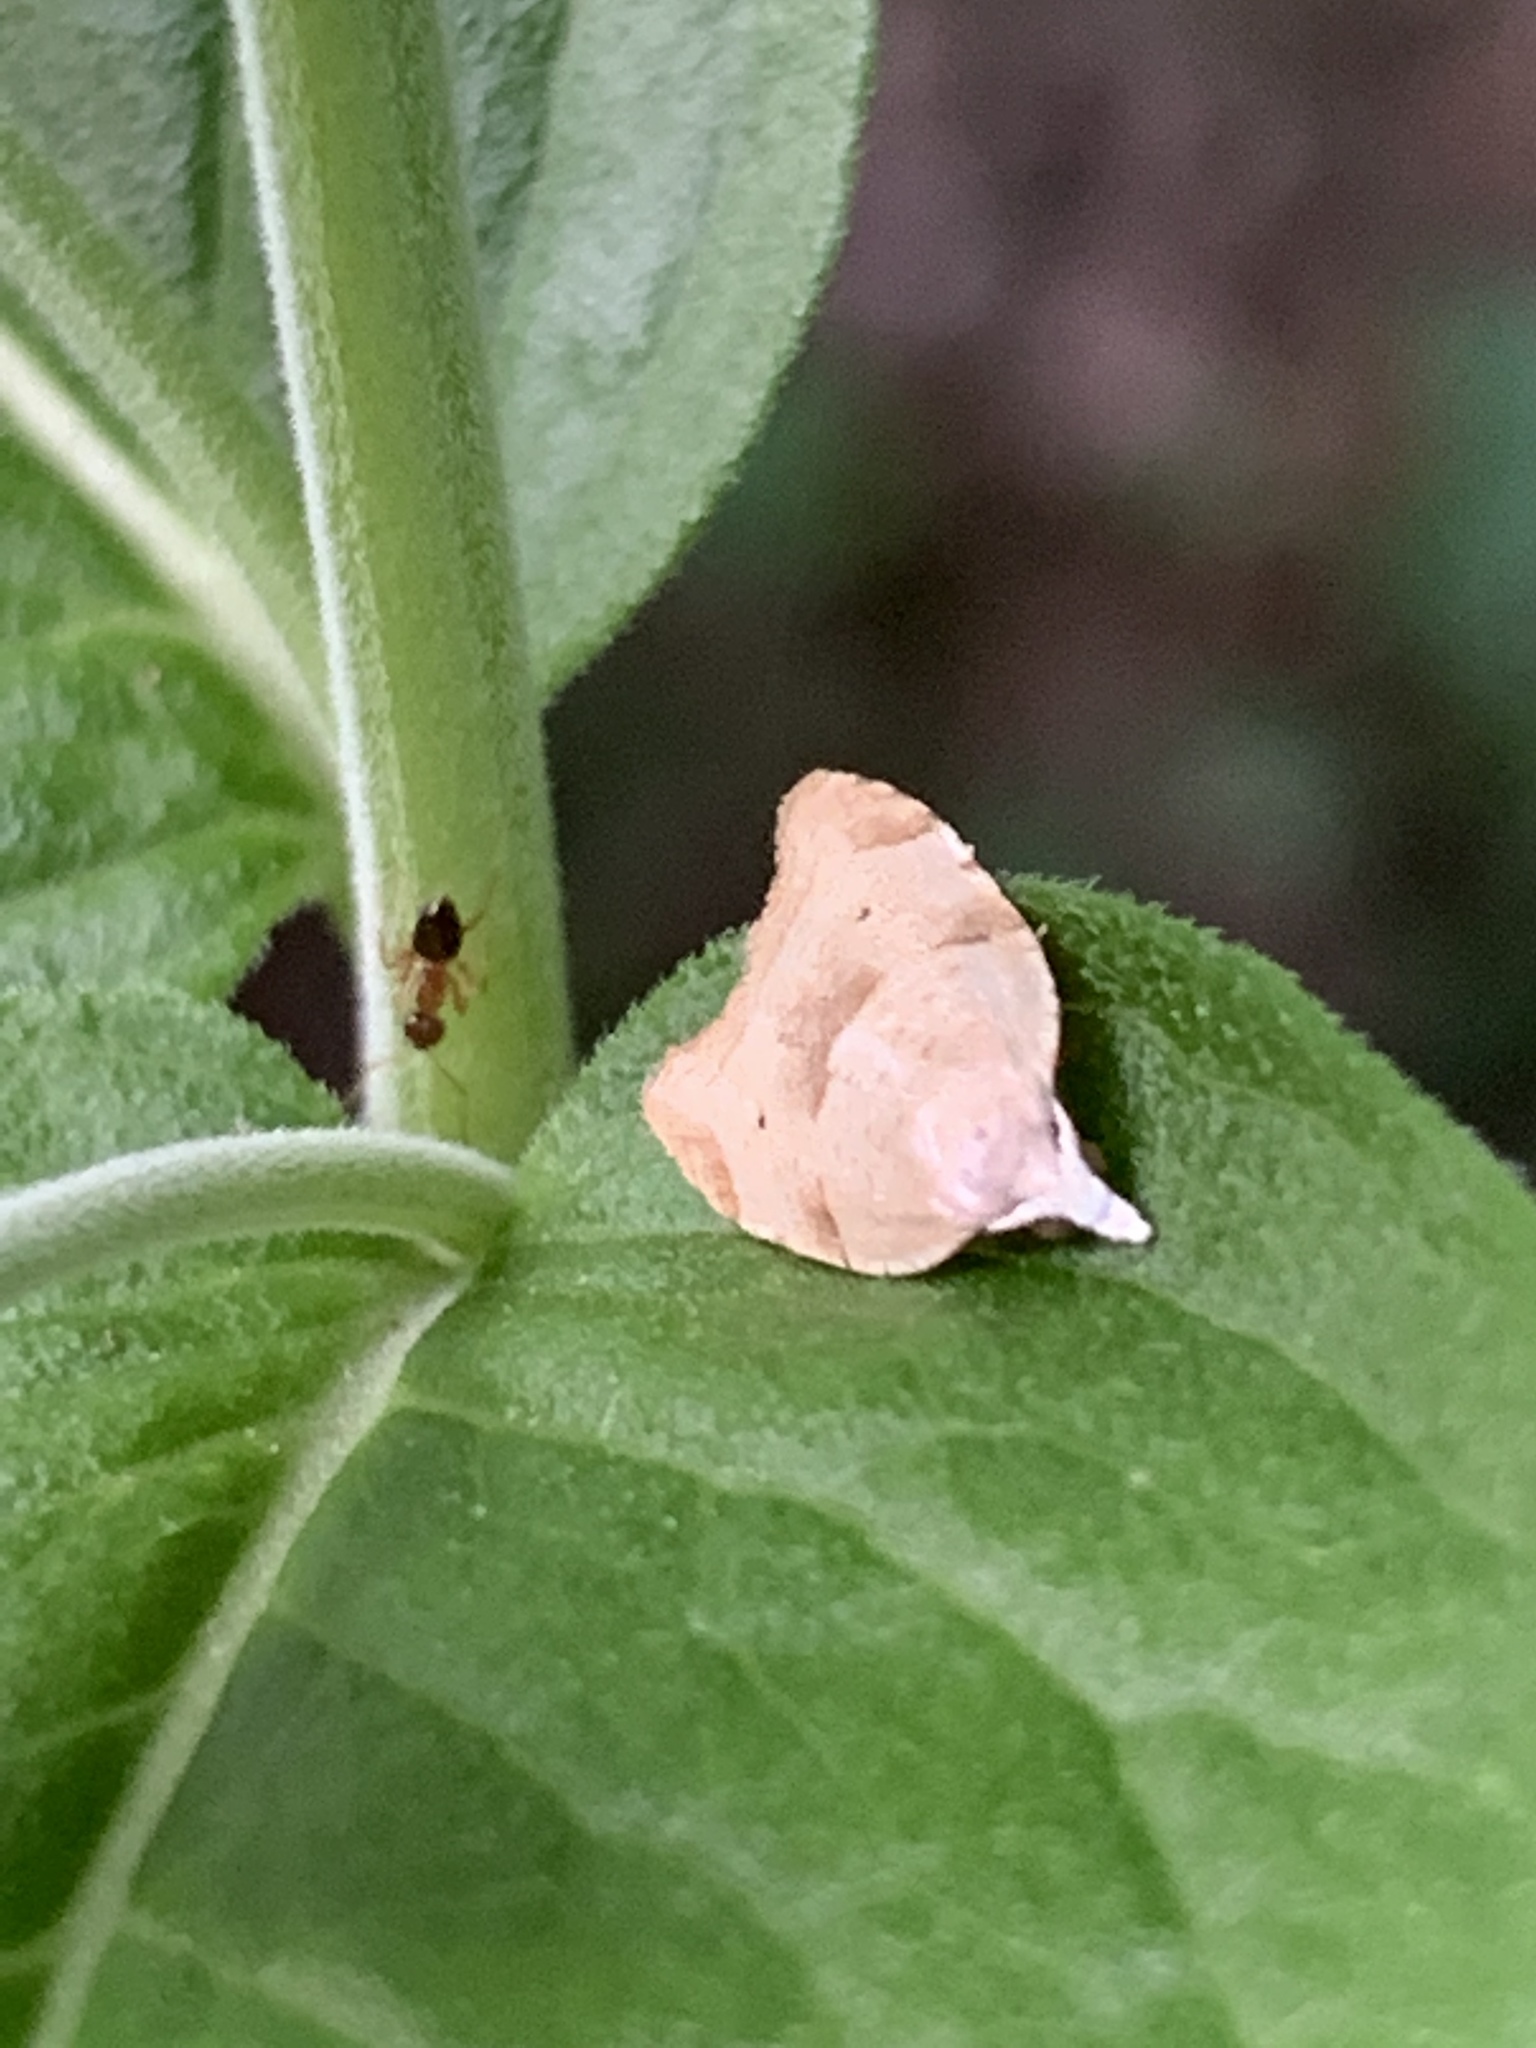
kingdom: Animalia
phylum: Arthropoda
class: Insecta
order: Lepidoptera
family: Tortricidae
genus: Coelostathma
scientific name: Coelostathma discopunctana
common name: Batman moth
